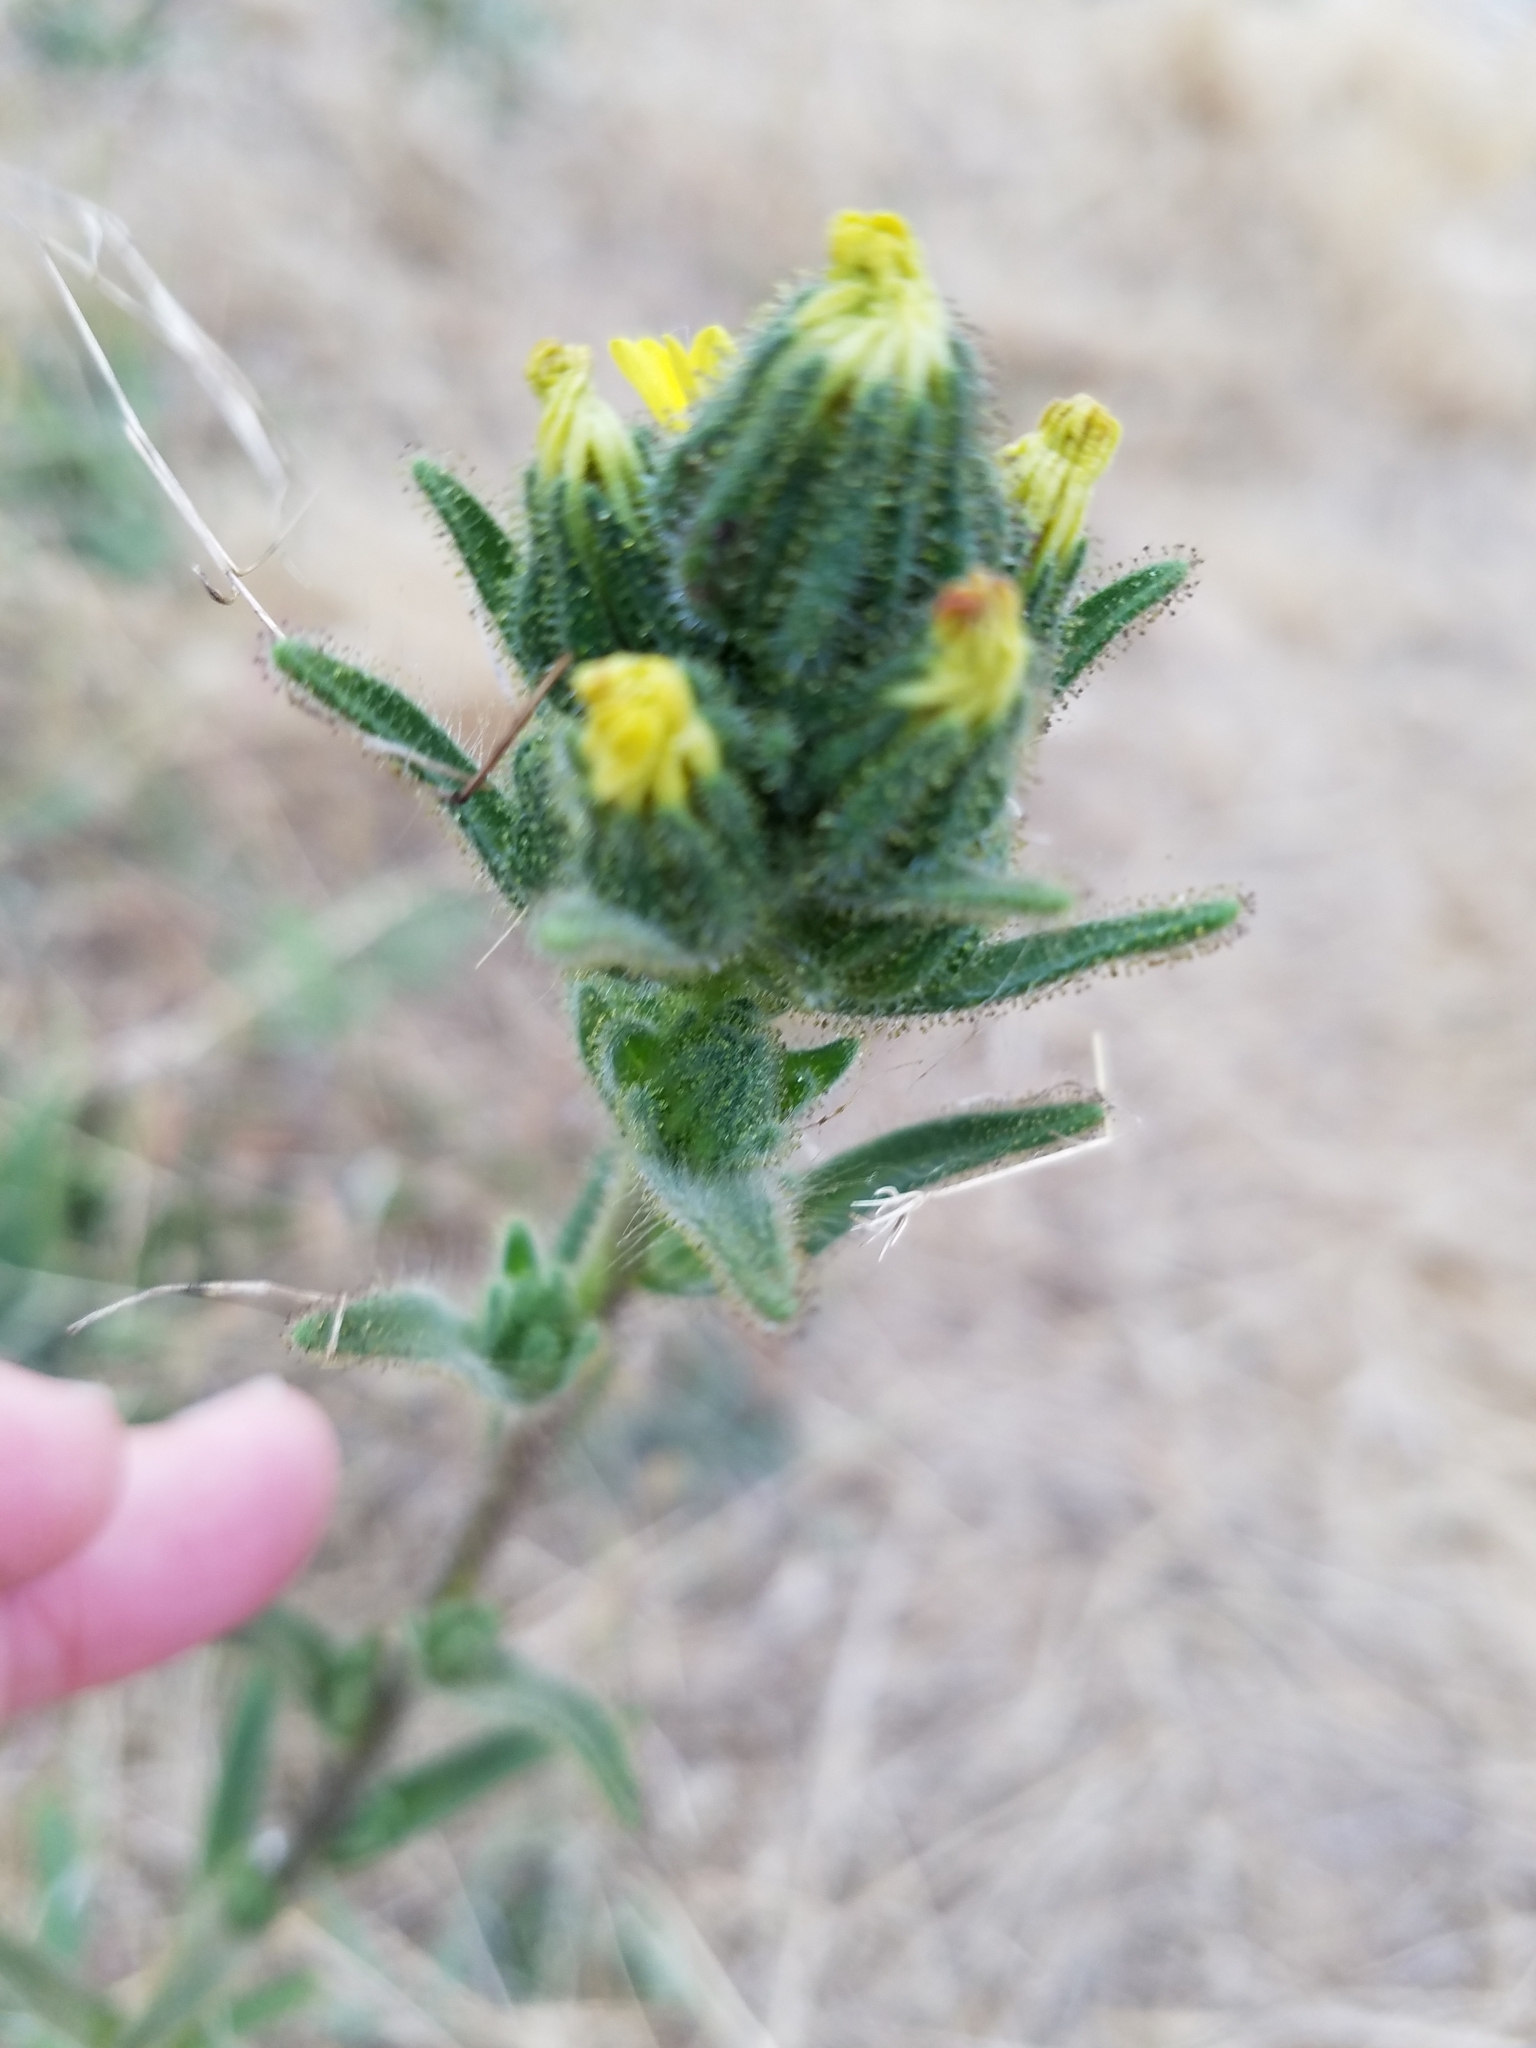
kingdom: Plantae
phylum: Tracheophyta
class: Magnoliopsida
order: Asterales
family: Asteraceae
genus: Madia
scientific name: Madia sativa
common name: Coast tarweed
